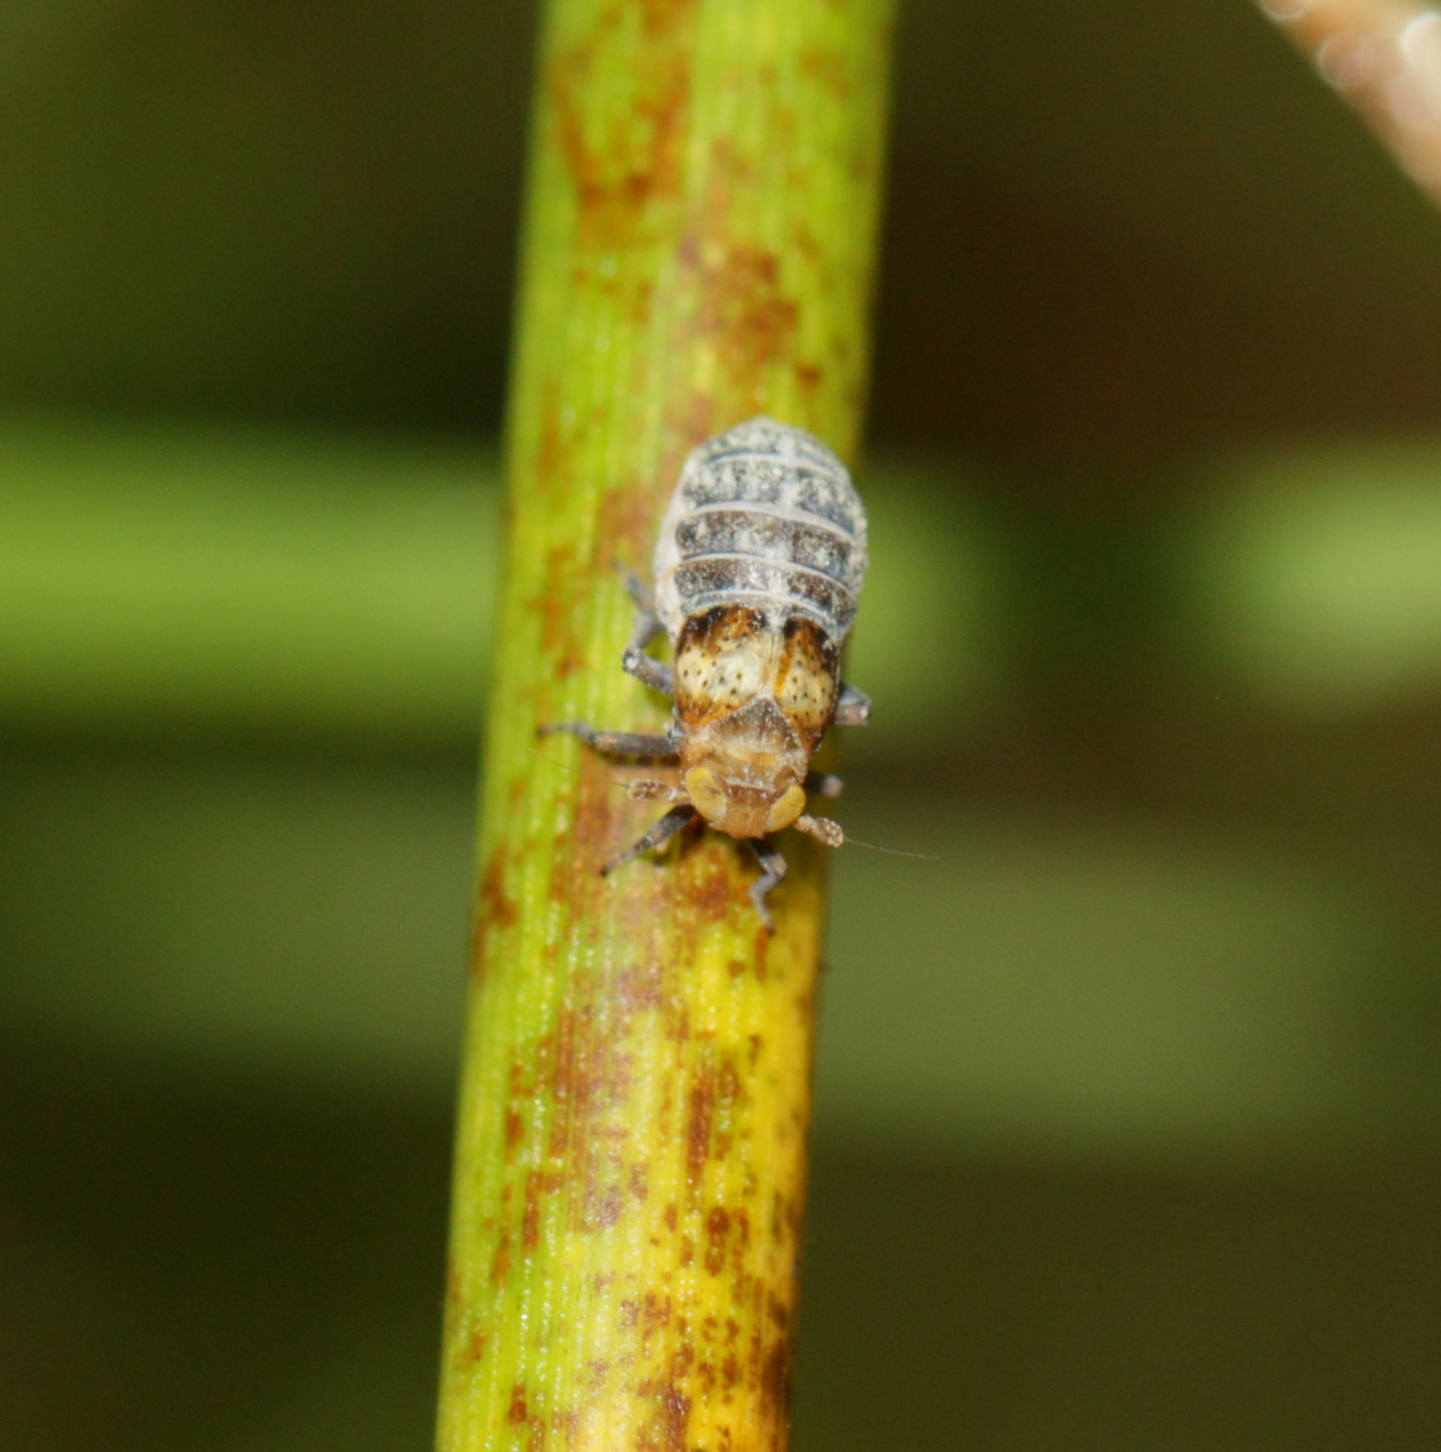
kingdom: Animalia
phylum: Arthropoda
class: Insecta
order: Hemiptera
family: Delphacidae
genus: Conomelus
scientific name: Conomelus anceps
